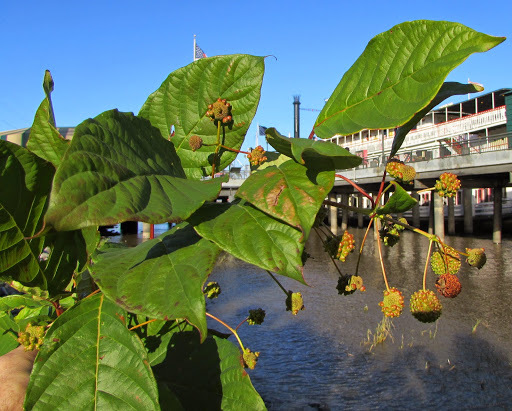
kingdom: Plantae
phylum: Tracheophyta
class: Magnoliopsida
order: Gentianales
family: Rubiaceae
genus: Cephalanthus
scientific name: Cephalanthus occidentalis
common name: Button-willow
